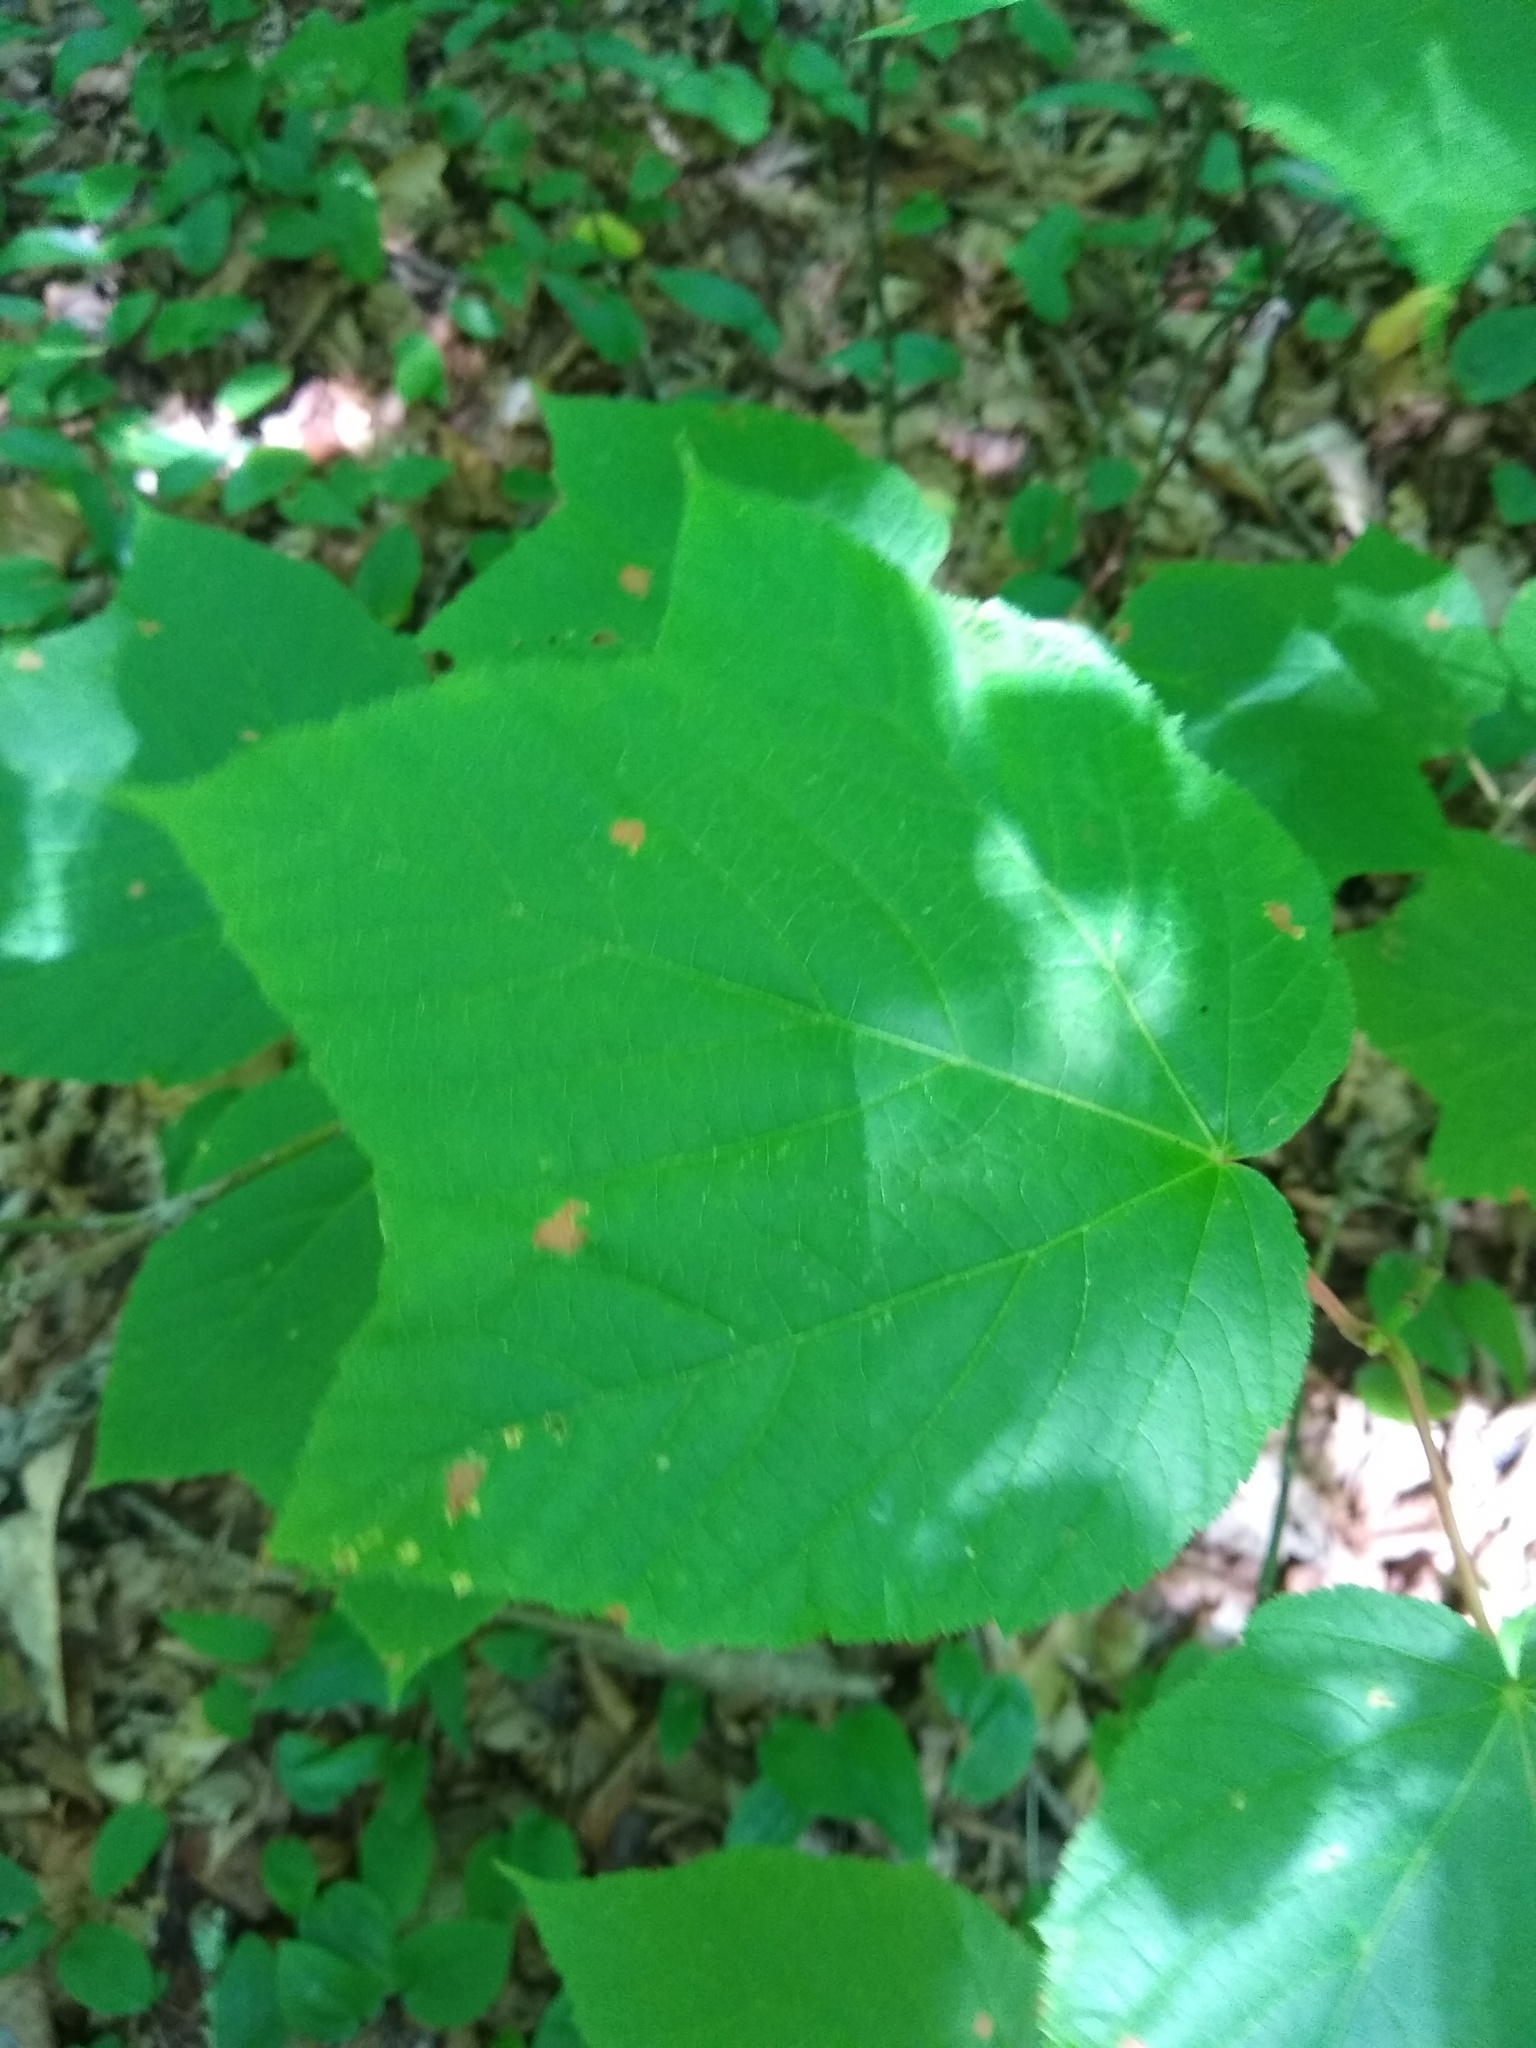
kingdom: Plantae
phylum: Tracheophyta
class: Magnoliopsida
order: Sapindales
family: Sapindaceae
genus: Acer
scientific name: Acer pensylvanicum
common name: Moosewood
